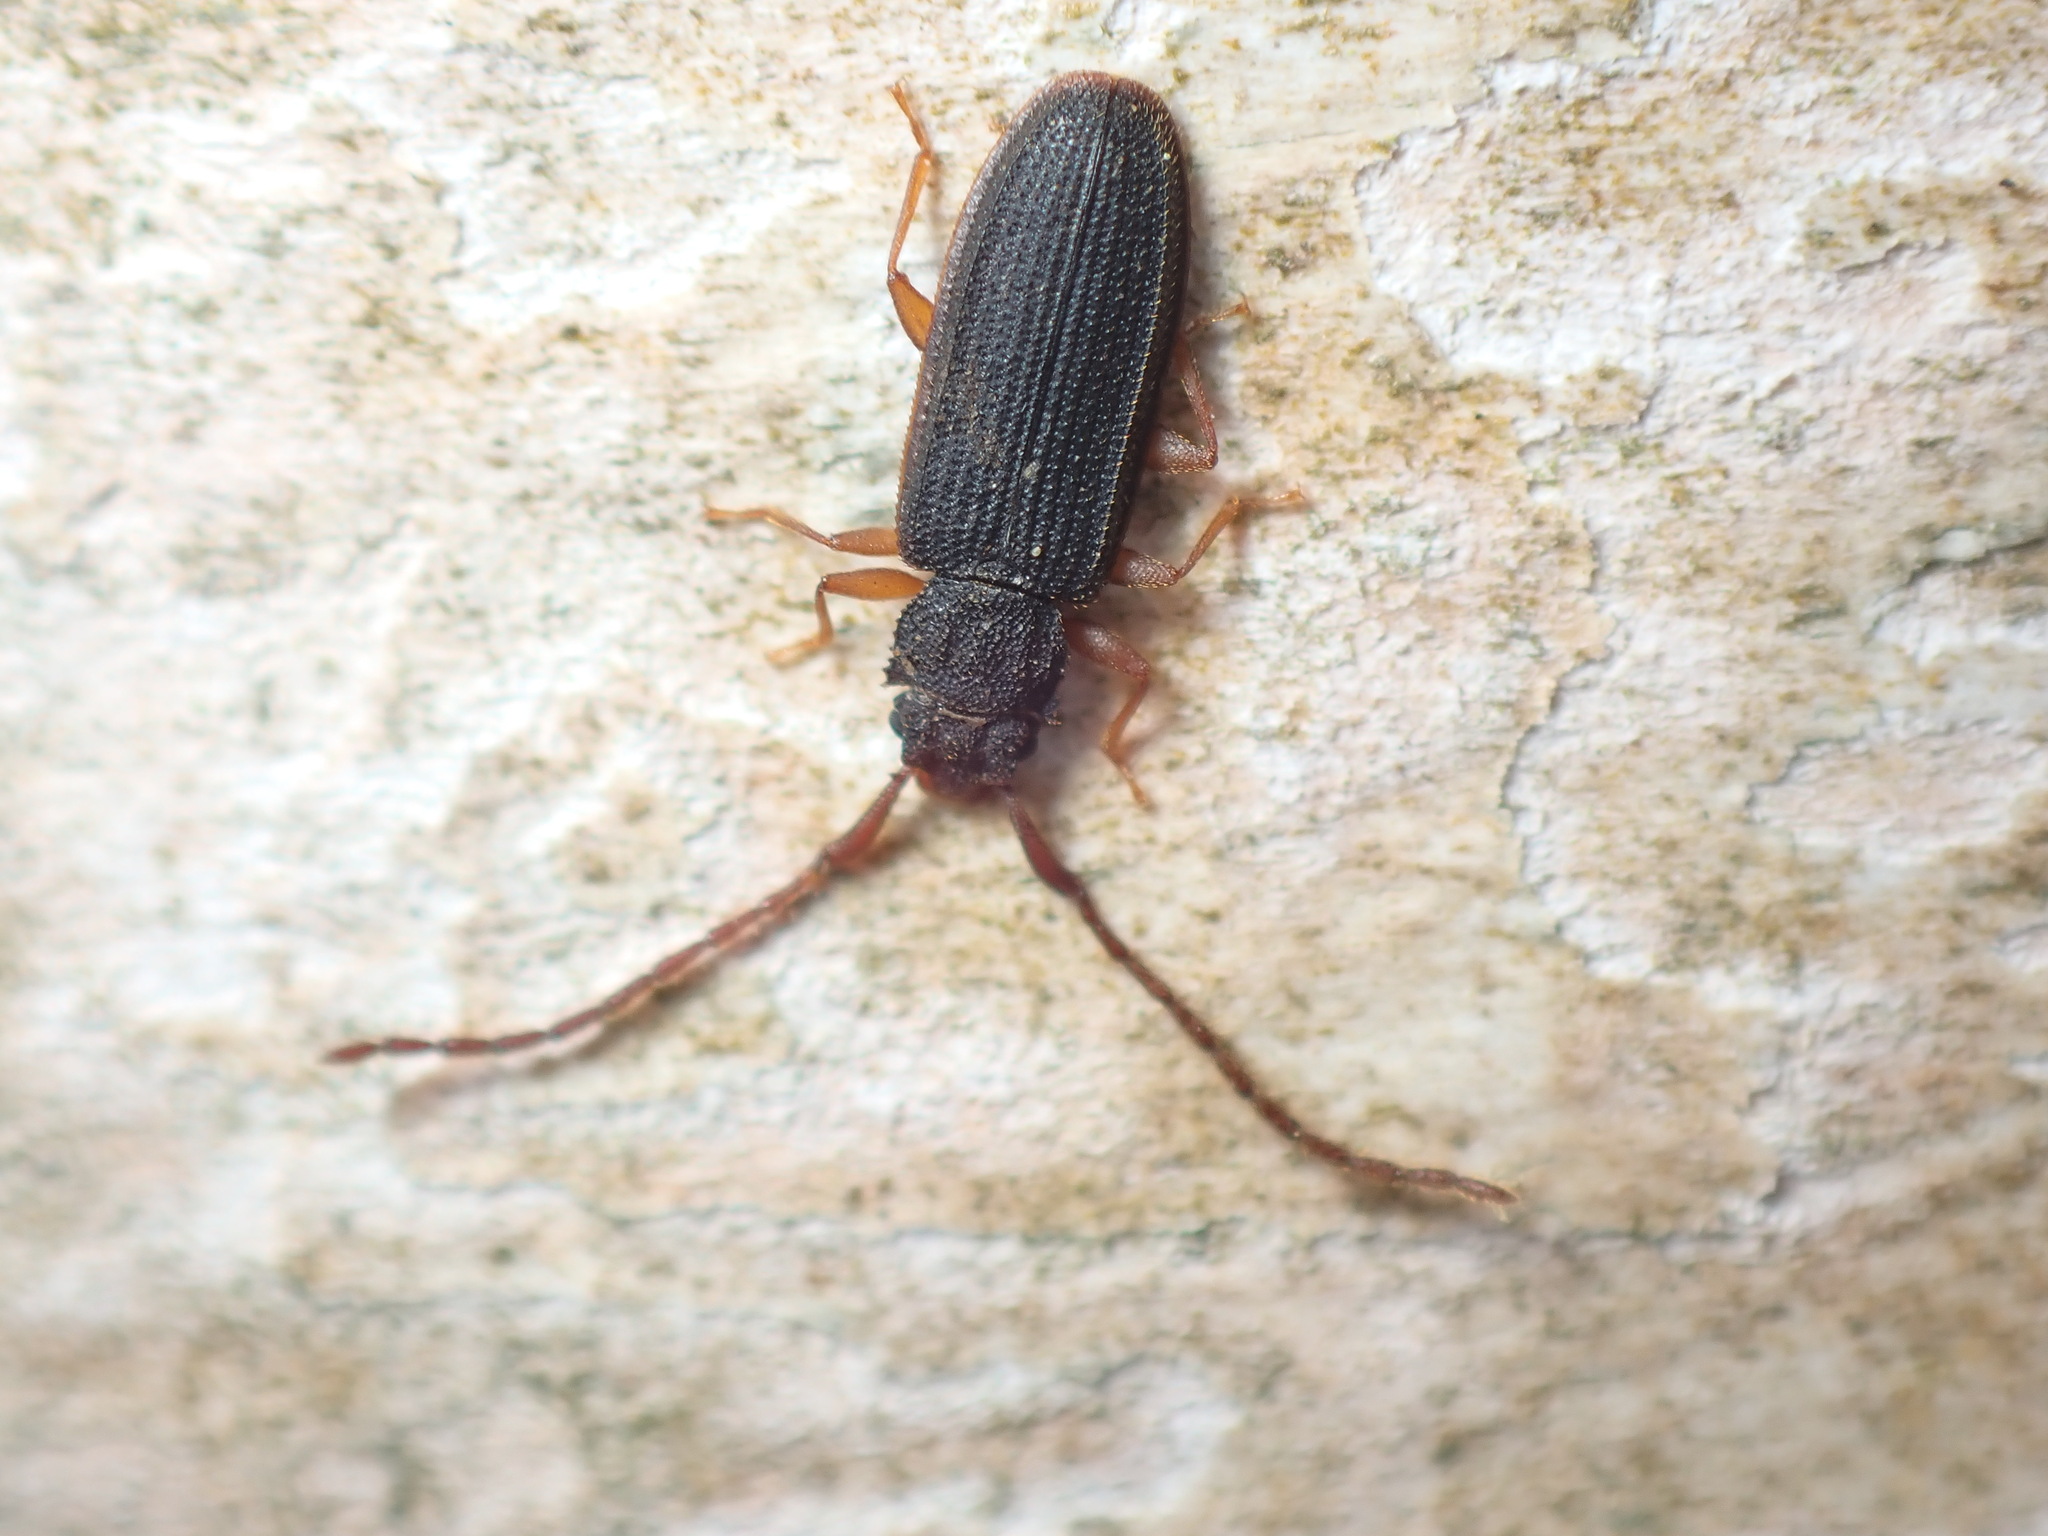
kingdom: Animalia
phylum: Arthropoda
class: Insecta
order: Coleoptera
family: Silvanidae
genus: Uleiota
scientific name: Uleiota planatus
